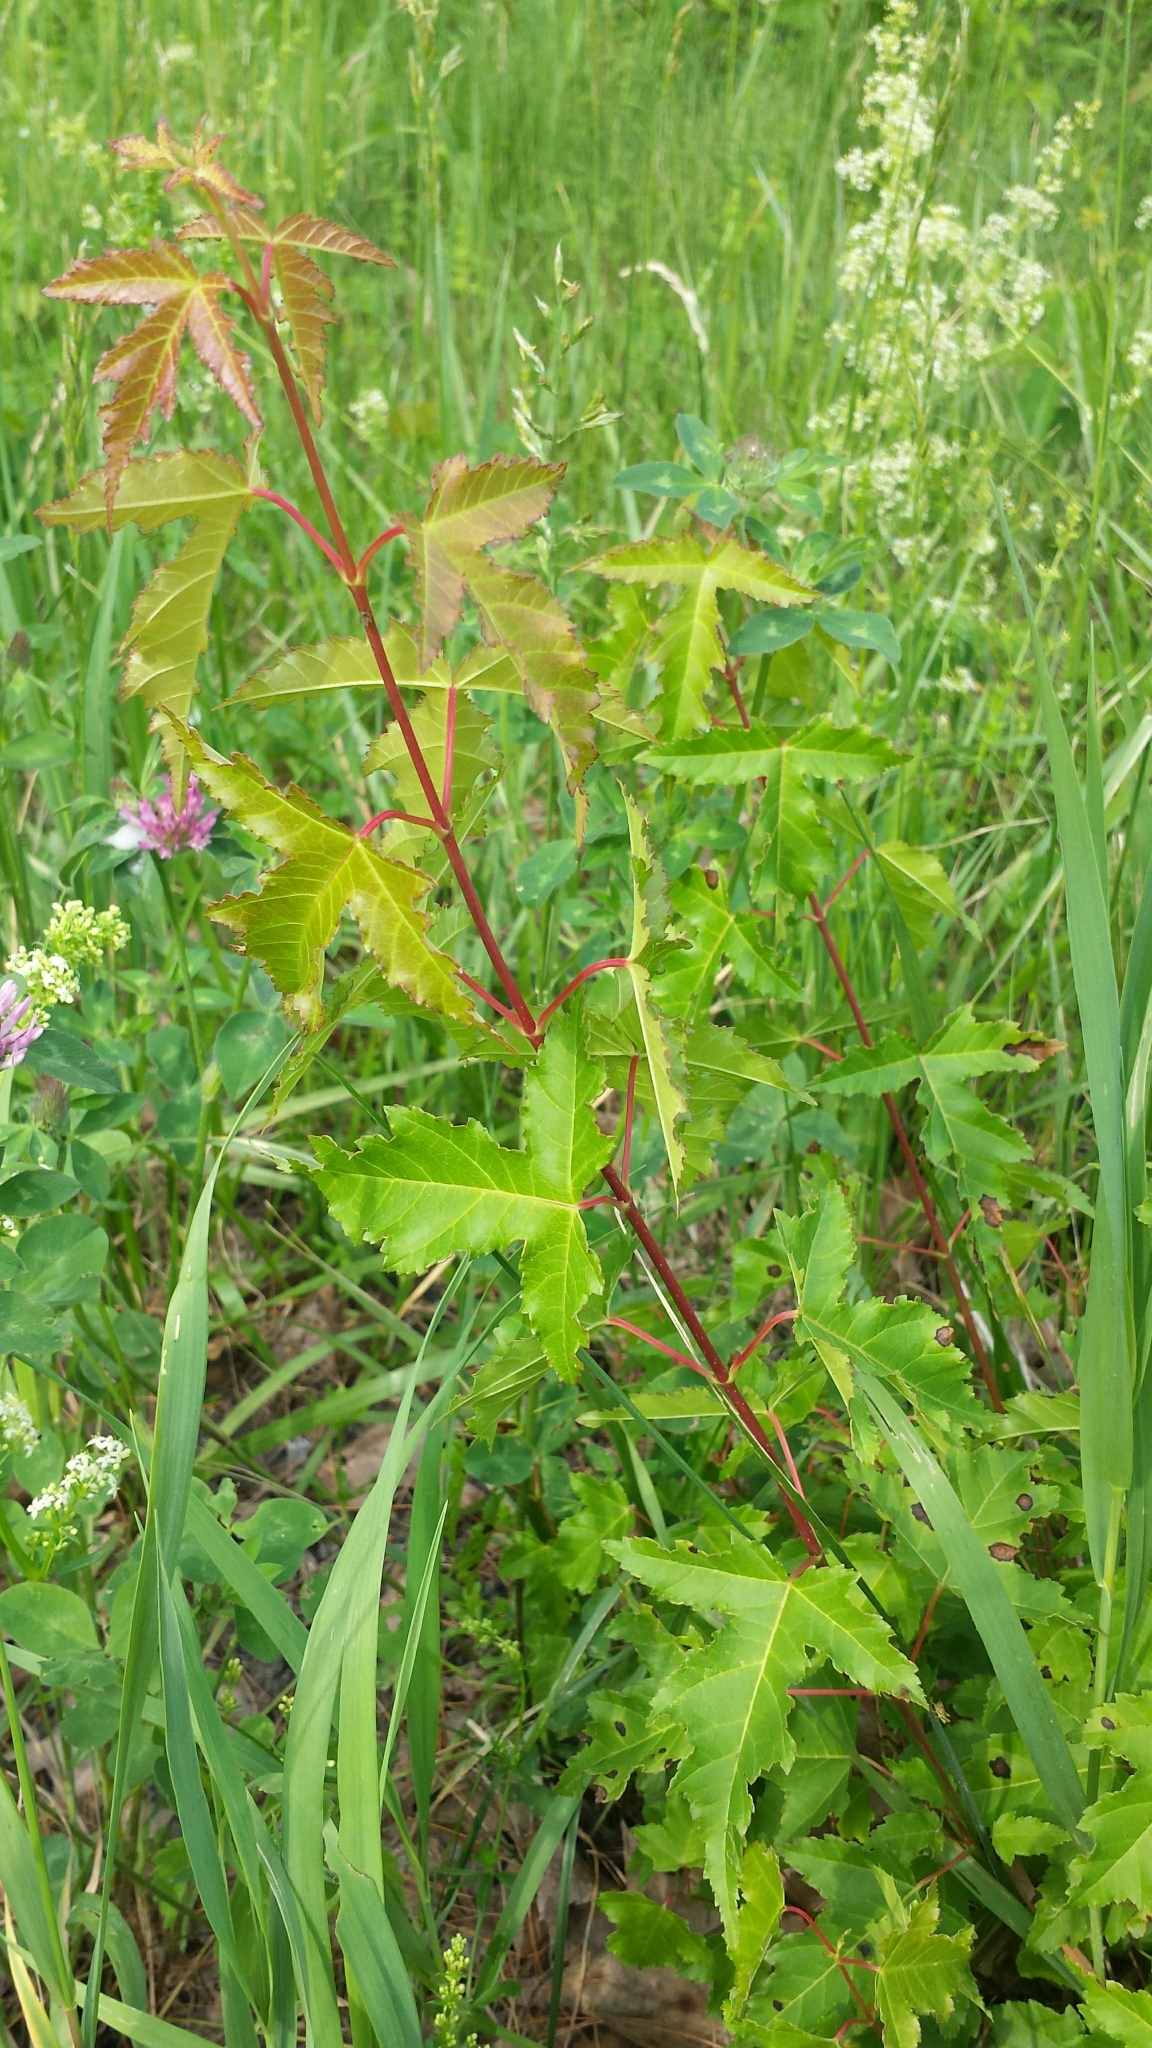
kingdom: Plantae
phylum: Tracheophyta
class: Magnoliopsida
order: Sapindales
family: Sapindaceae
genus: Acer
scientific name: Acer tataricum
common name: Tartar maple
